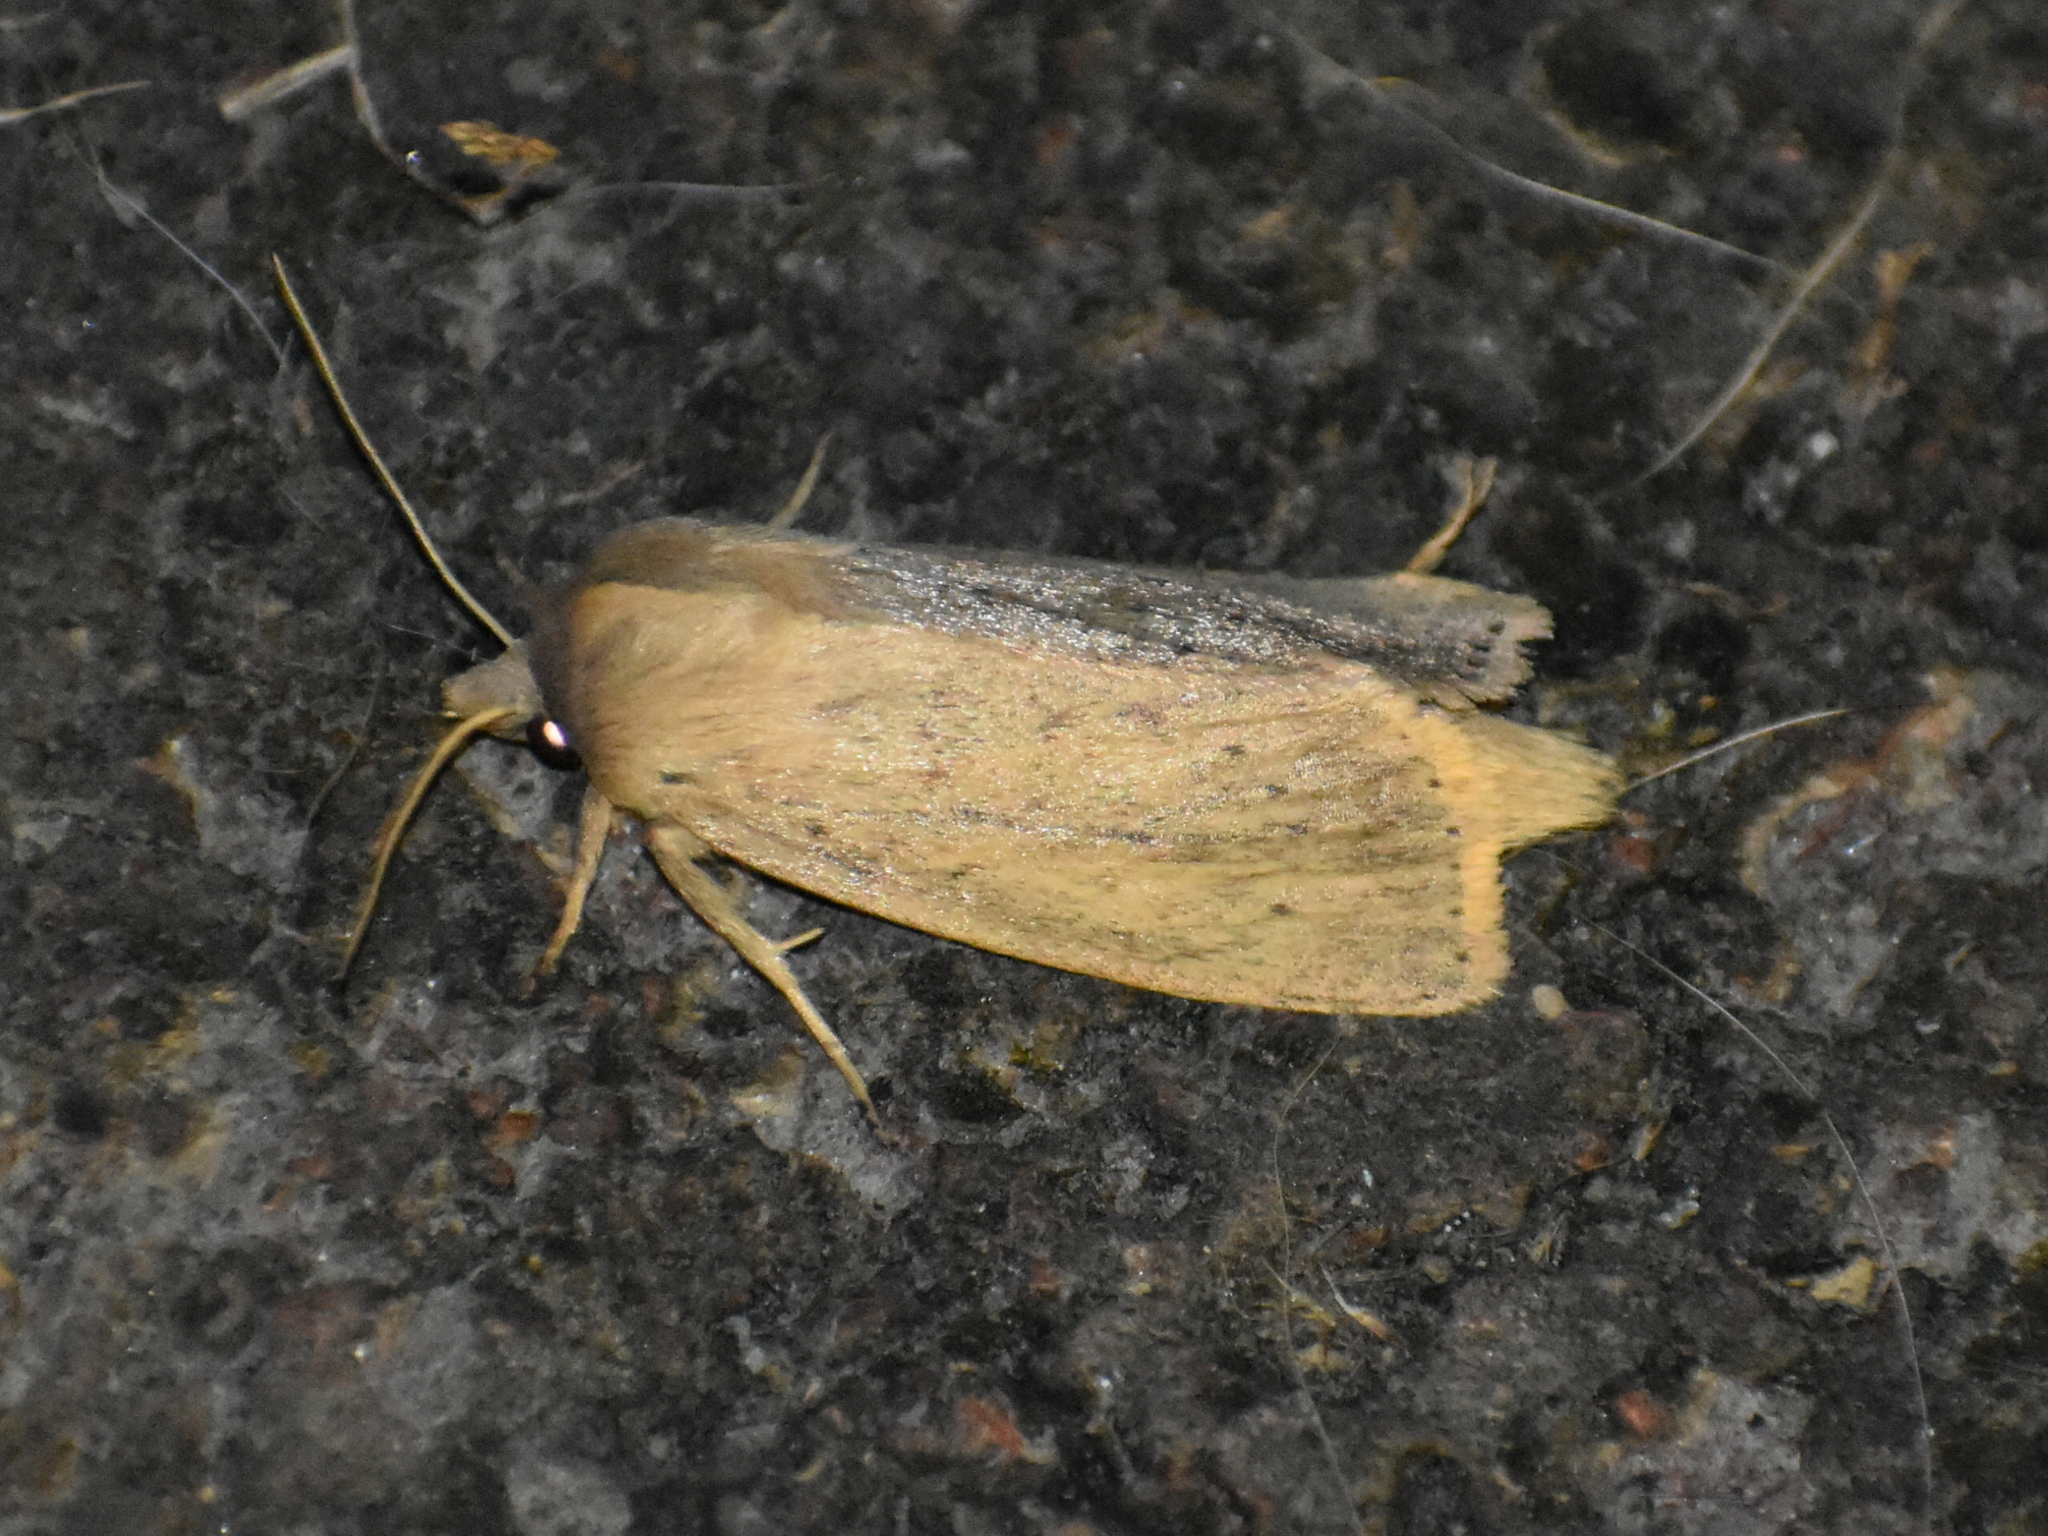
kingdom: Animalia
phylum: Arthropoda
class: Insecta
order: Lepidoptera
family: Noctuidae
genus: Globia
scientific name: Globia oblonga
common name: Oblong sedge borer moth
